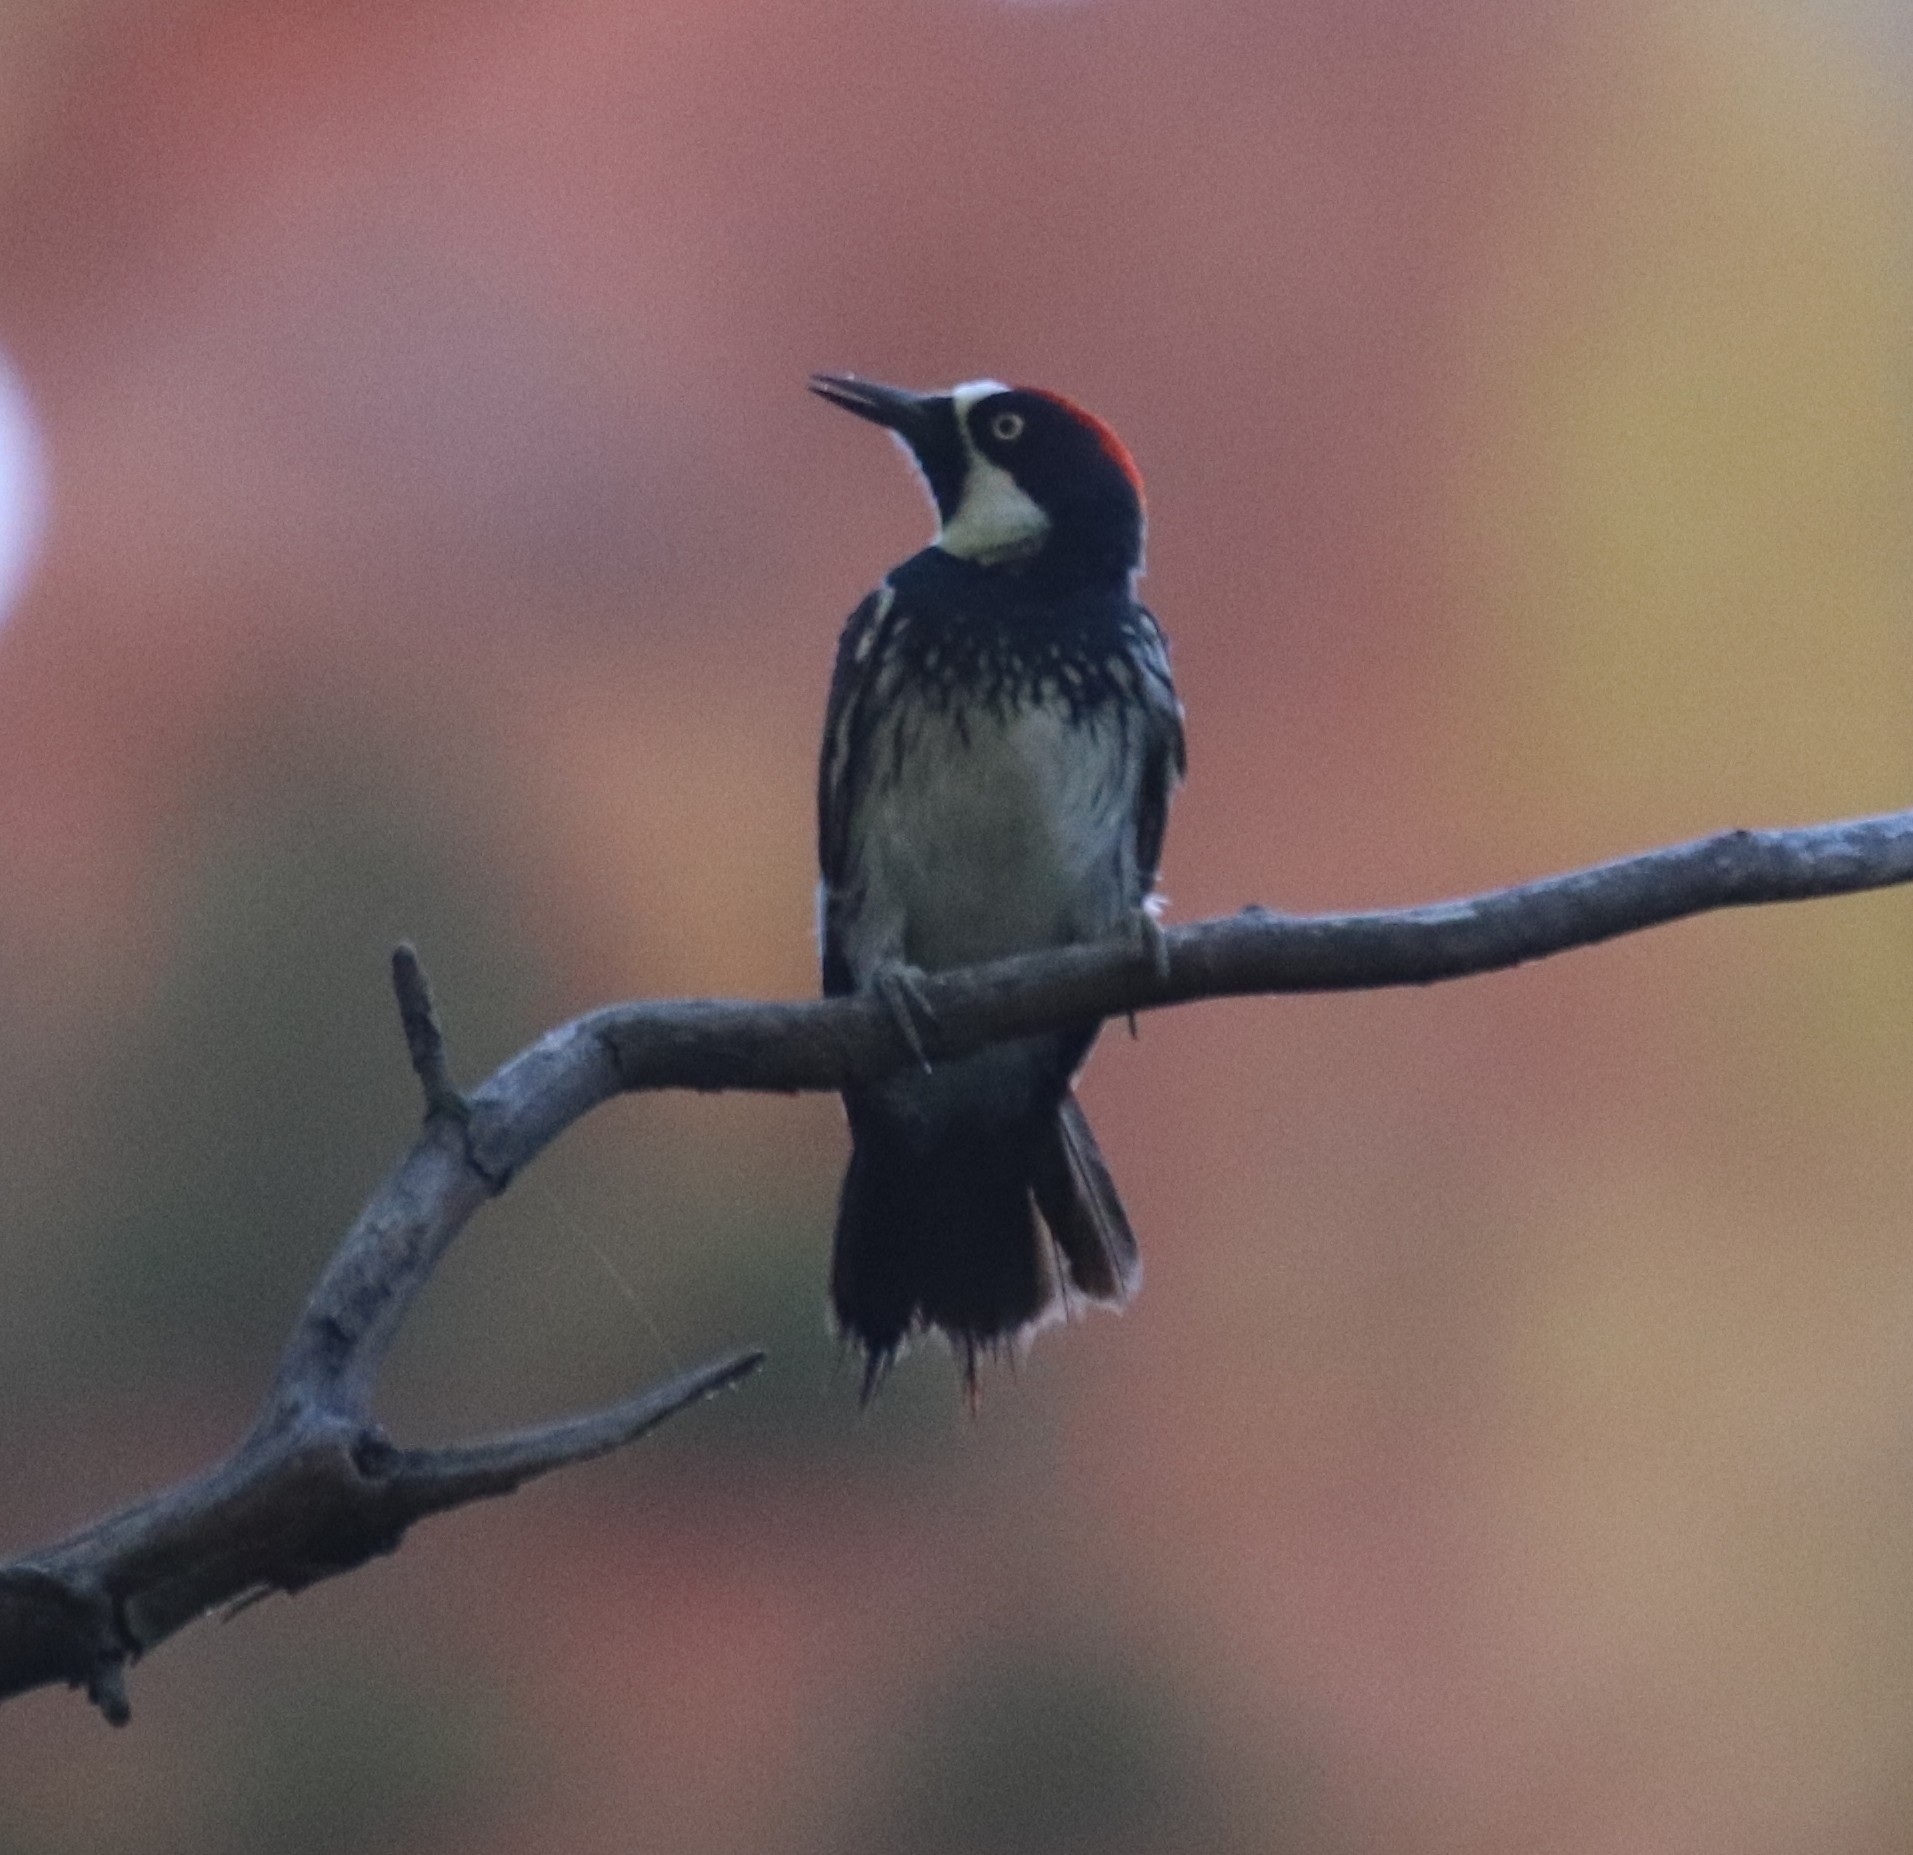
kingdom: Animalia
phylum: Chordata
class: Aves
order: Piciformes
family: Picidae
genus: Melanerpes
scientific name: Melanerpes formicivorus
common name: Acorn woodpecker
